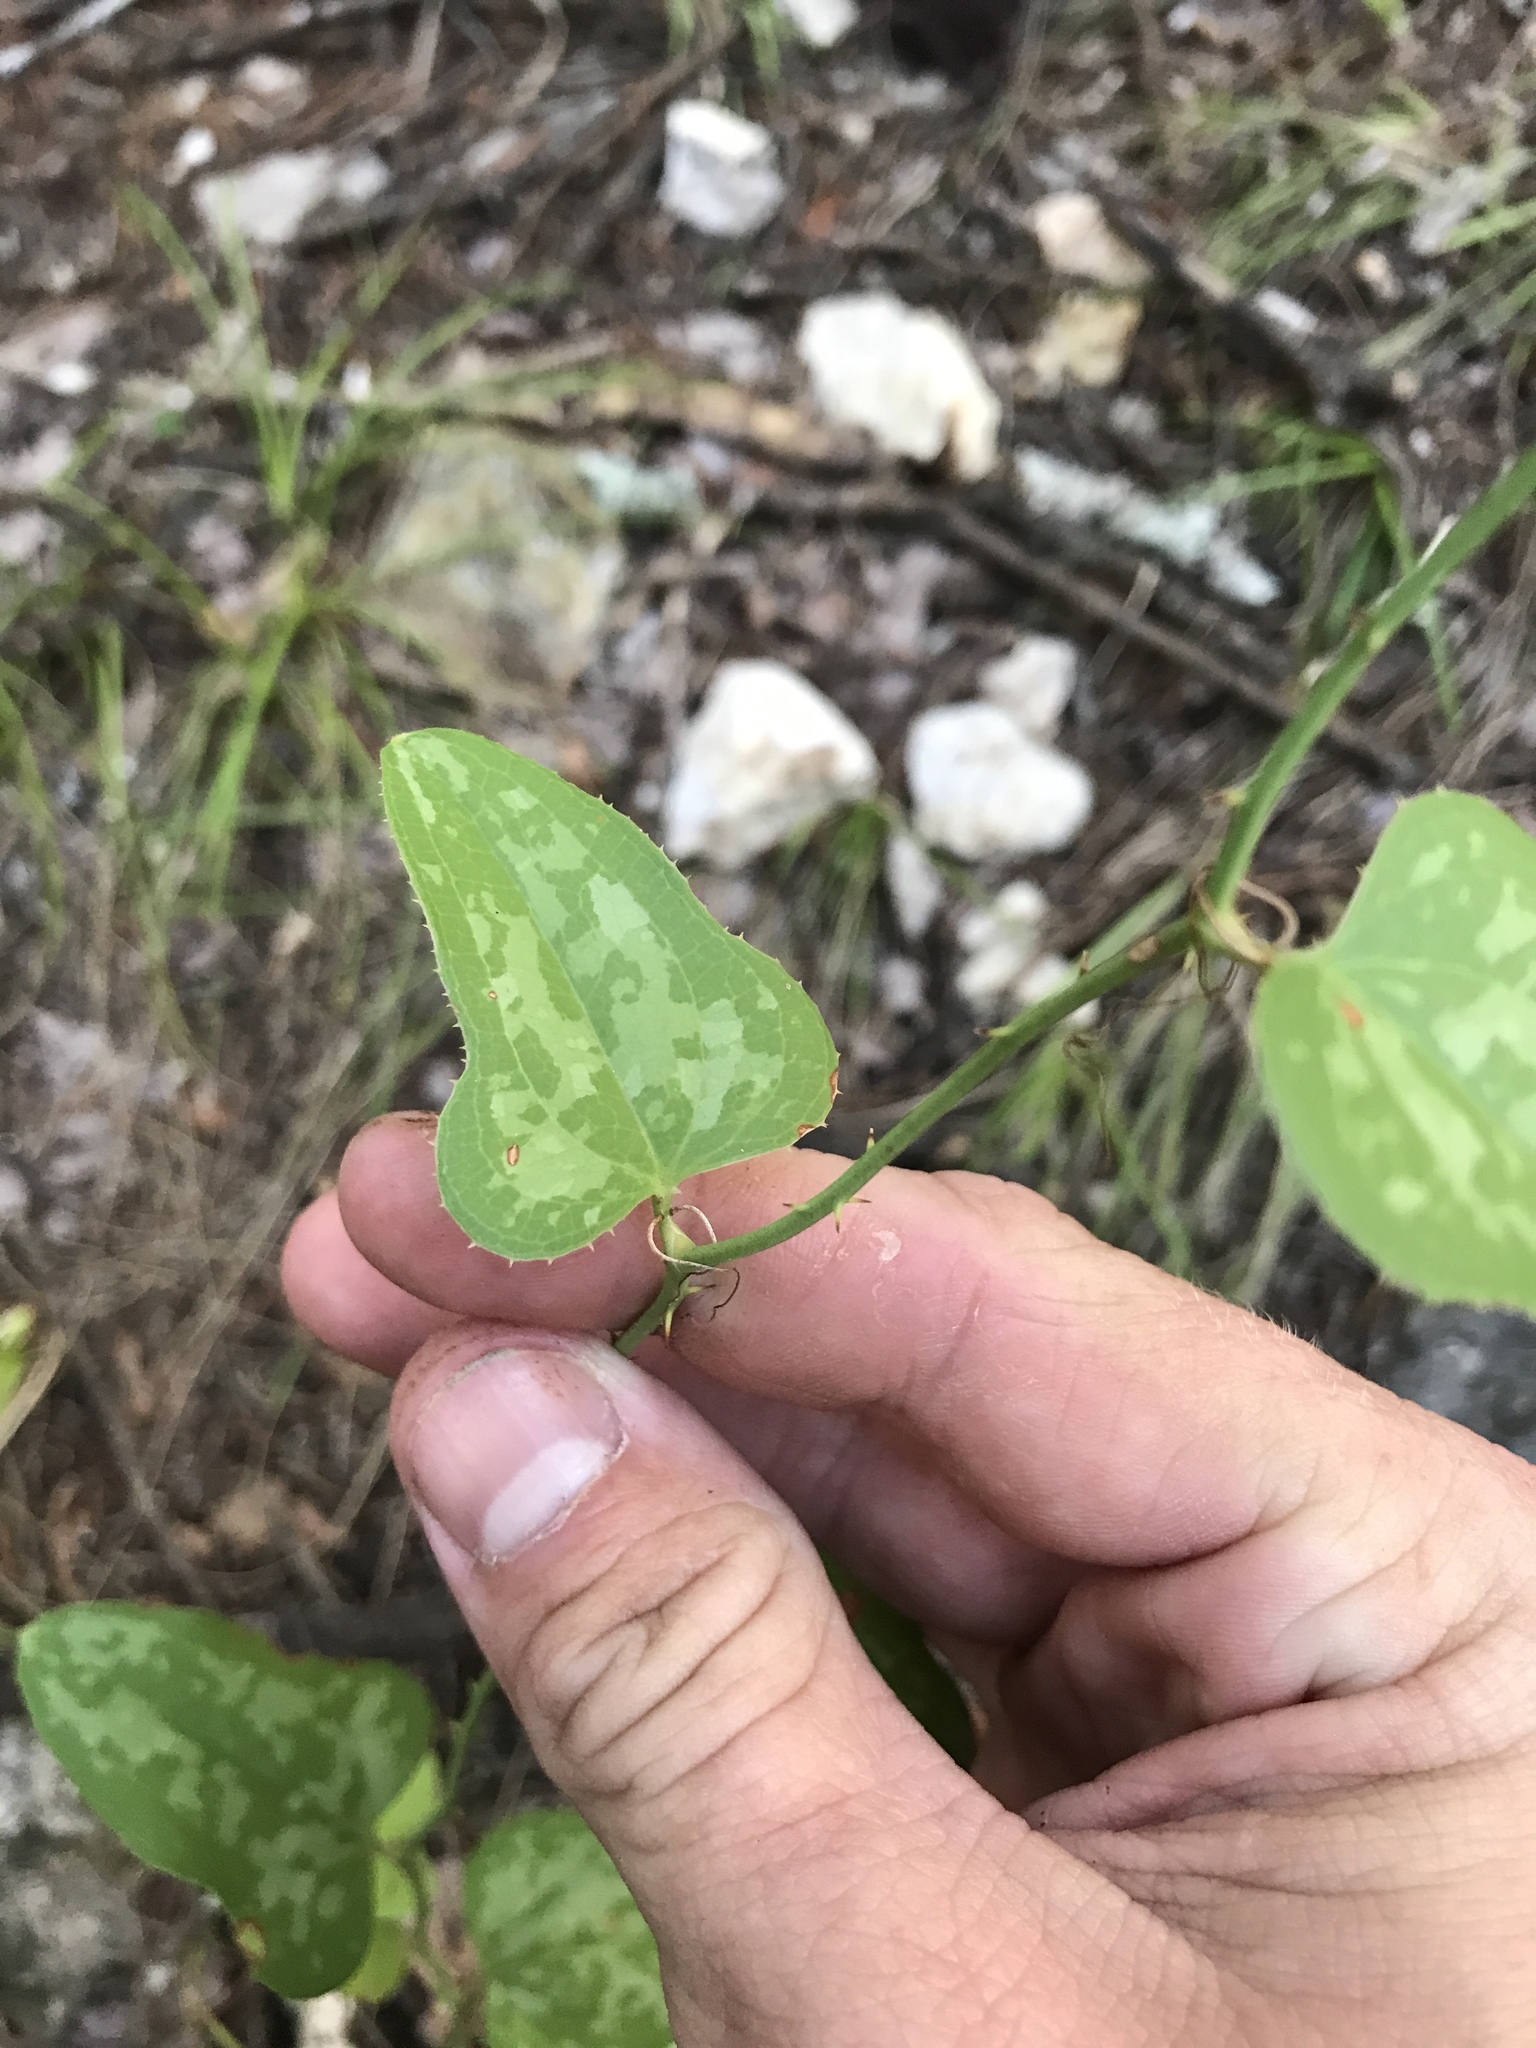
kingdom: Plantae
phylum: Tracheophyta
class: Liliopsida
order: Liliales
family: Smilacaceae
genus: Smilax
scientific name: Smilax bona-nox
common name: Catbrier
